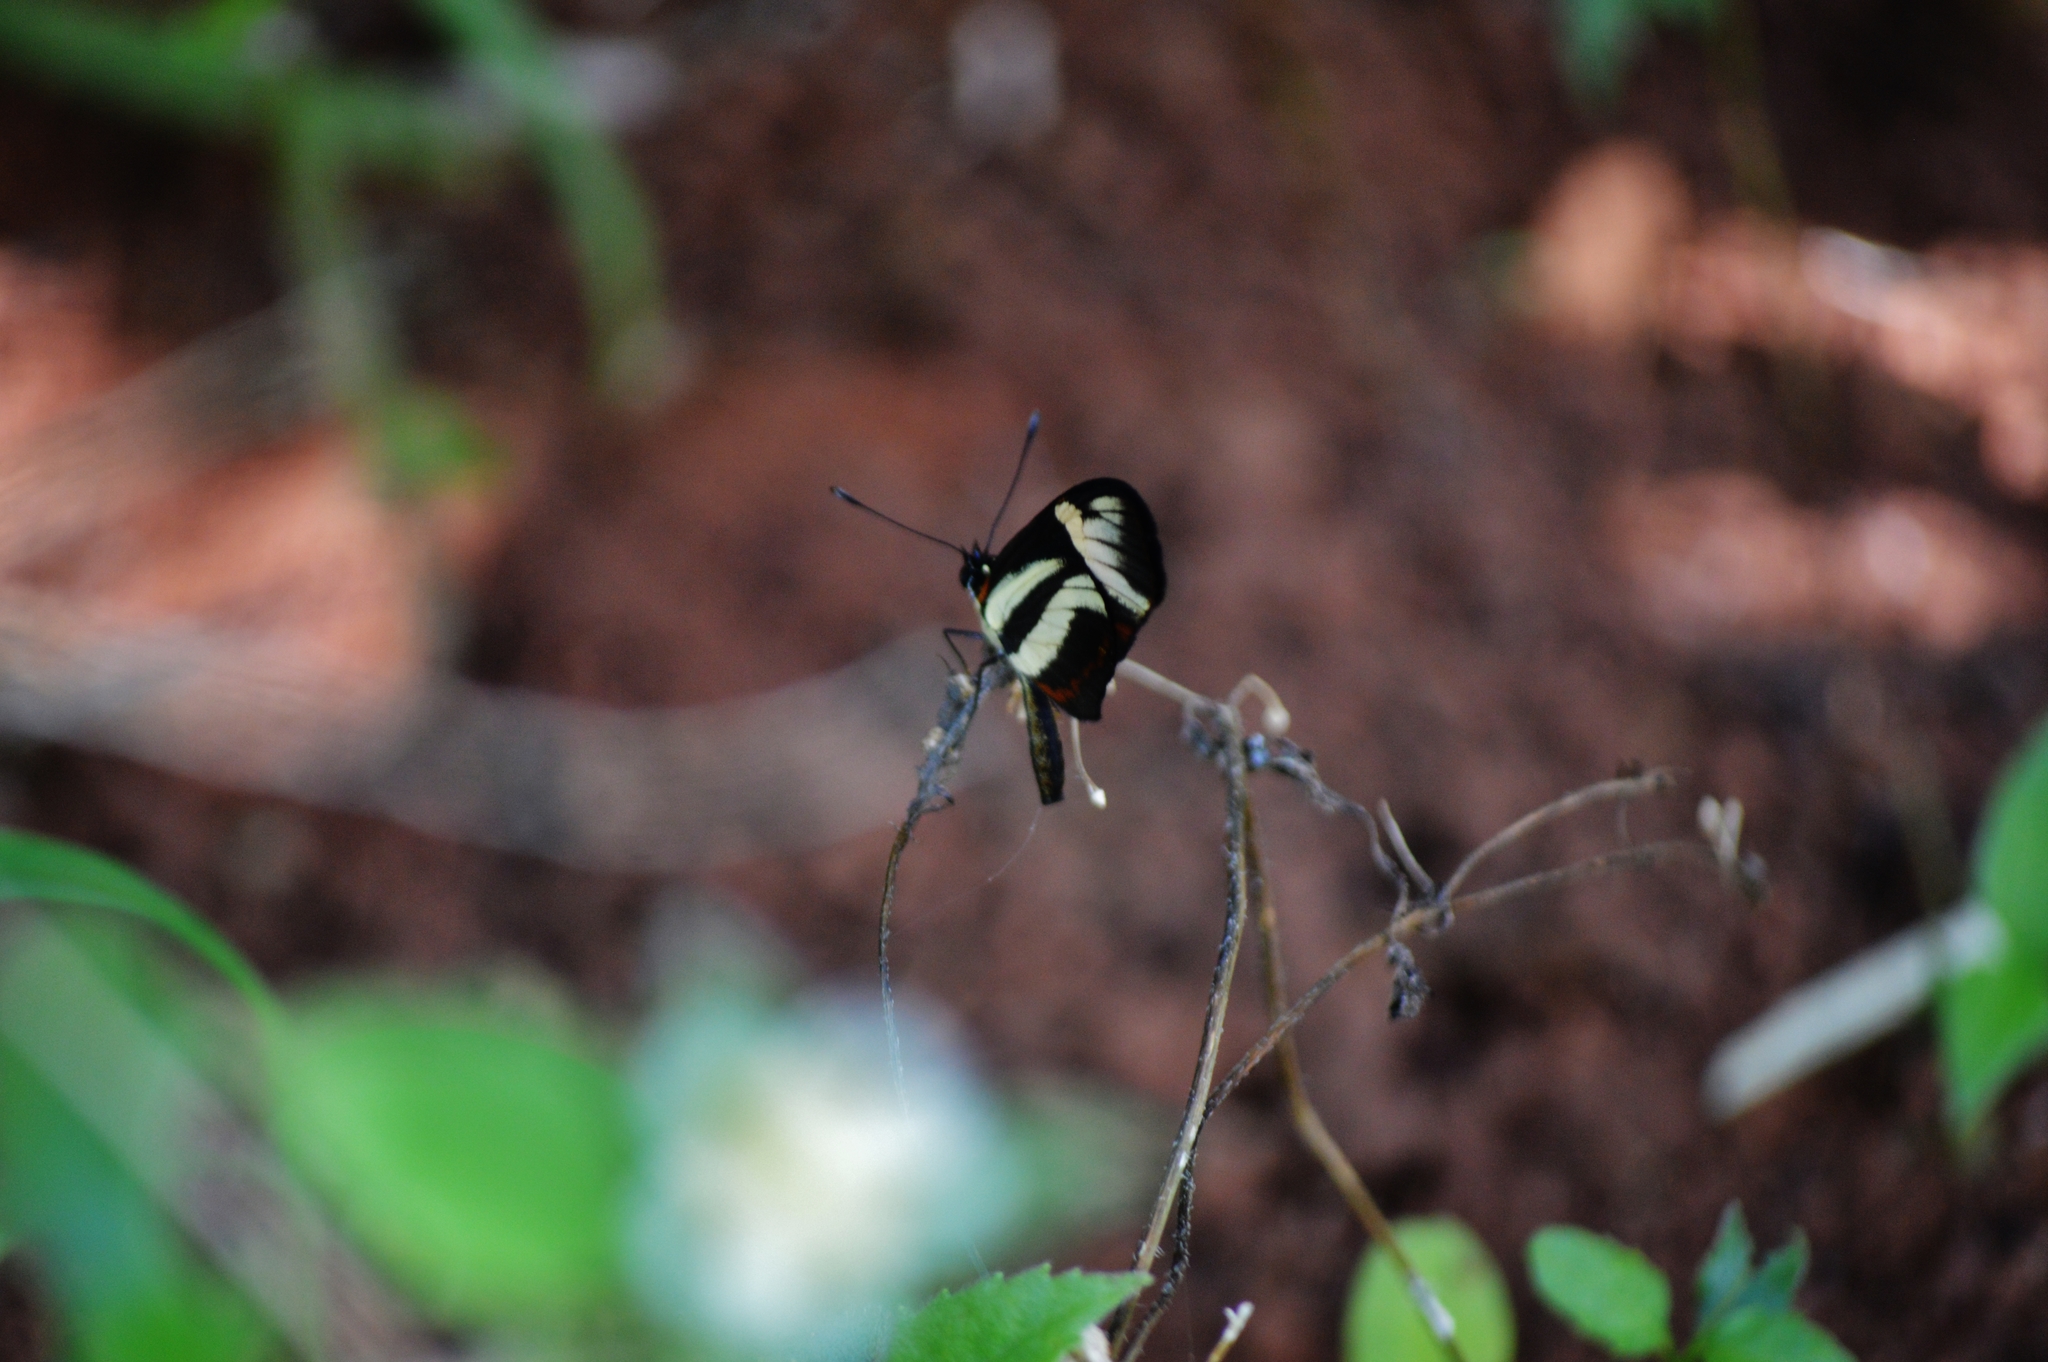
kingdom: Animalia
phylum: Arthropoda
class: Insecta
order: Lepidoptera
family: Nymphalidae
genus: Eresia
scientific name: Eresia lansdorfi
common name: Lansdorf's crescent
